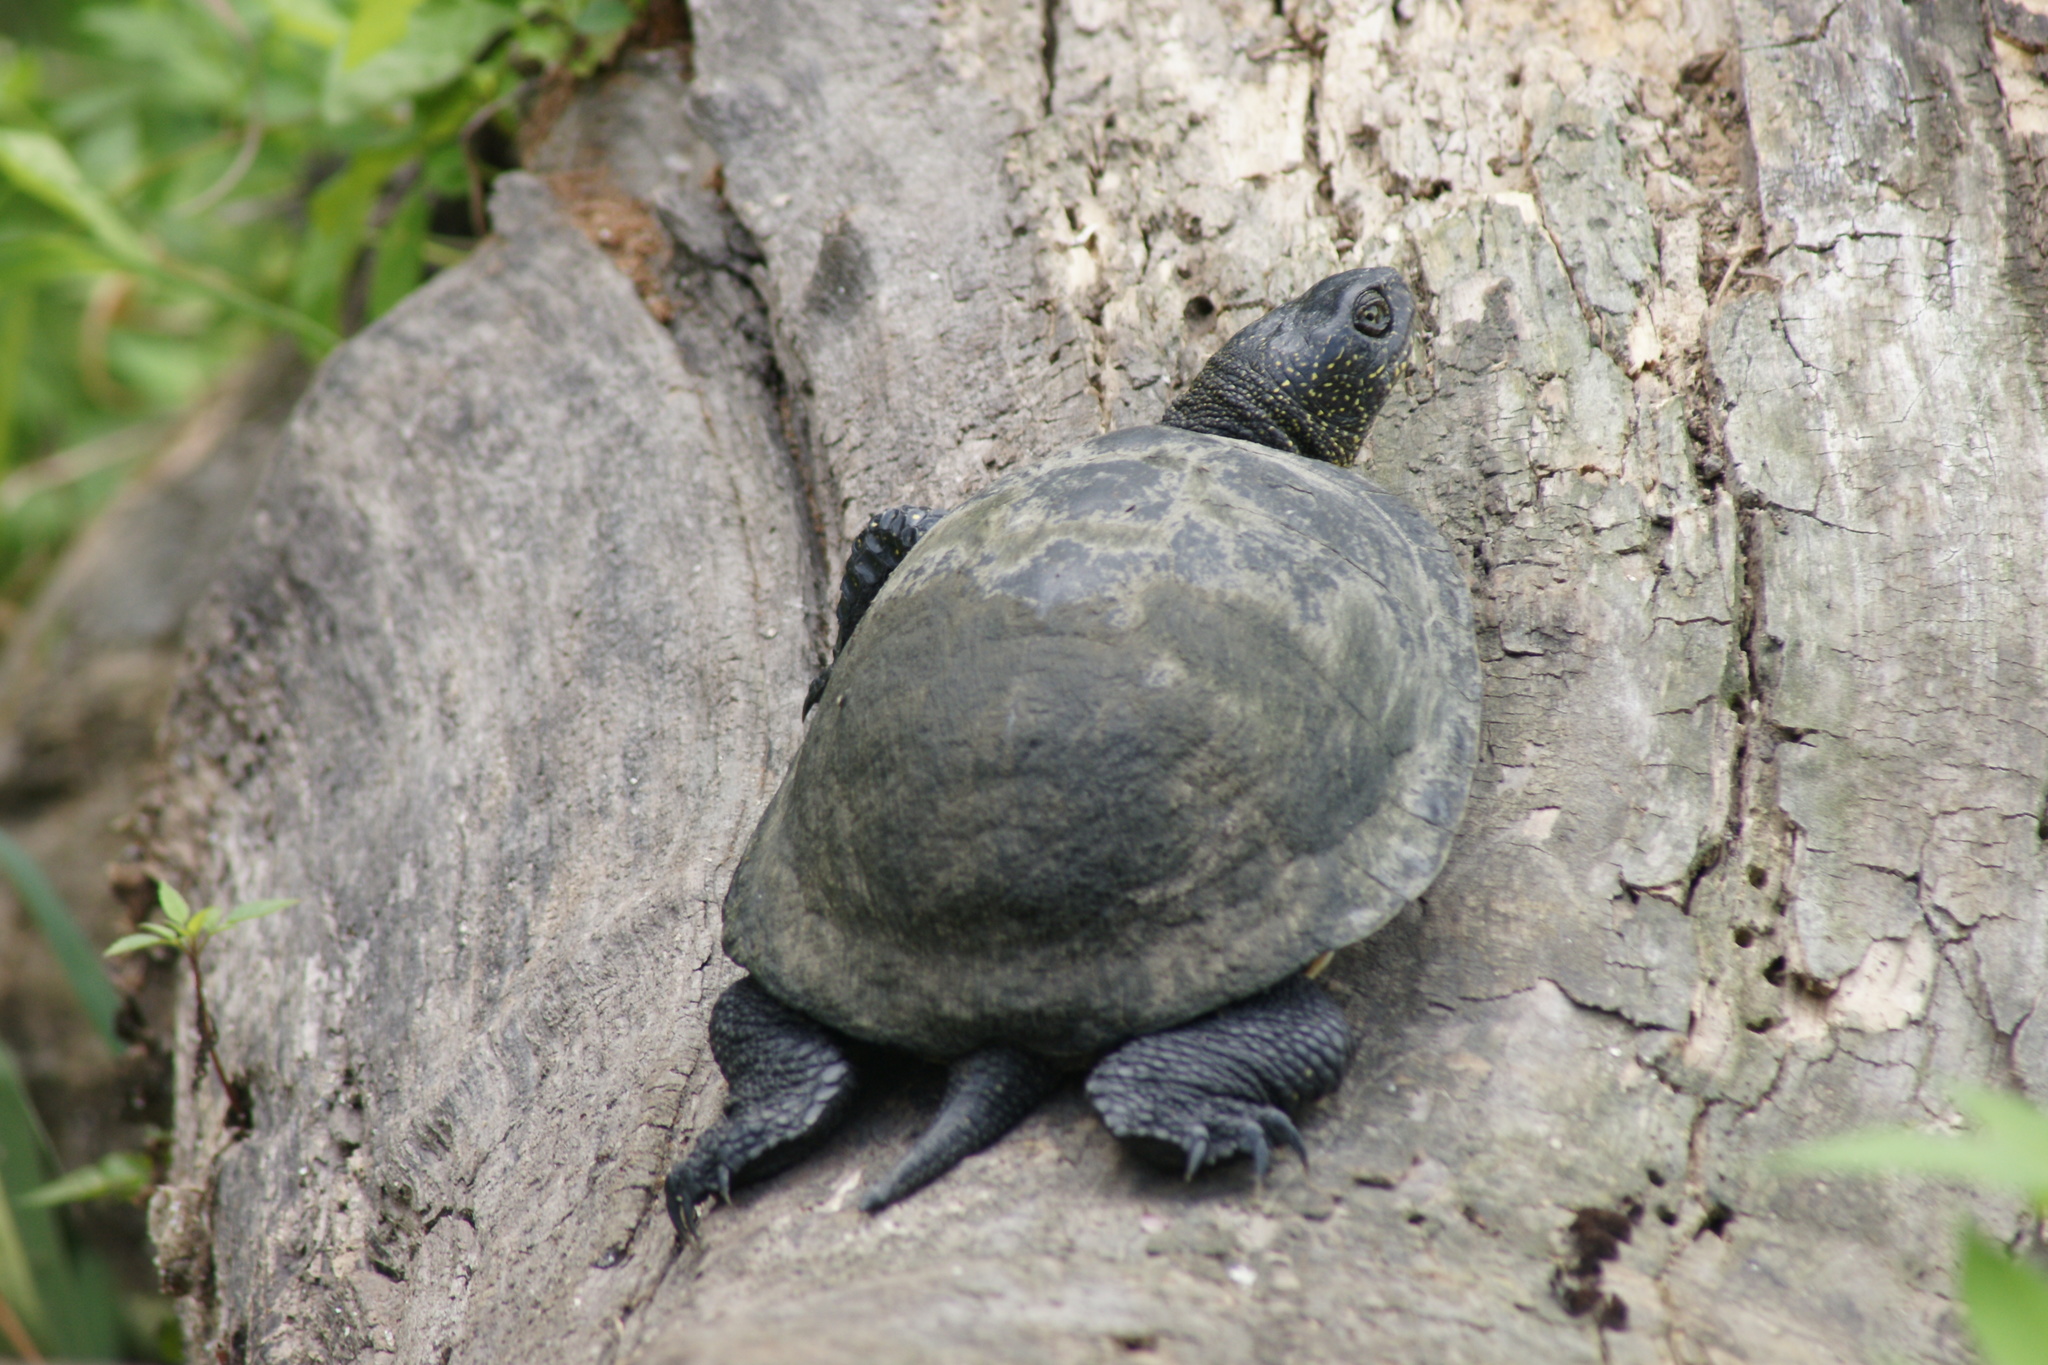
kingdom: Animalia
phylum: Chordata
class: Testudines
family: Emydidae
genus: Emys
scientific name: Emys orbicularis
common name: European pond turtle
